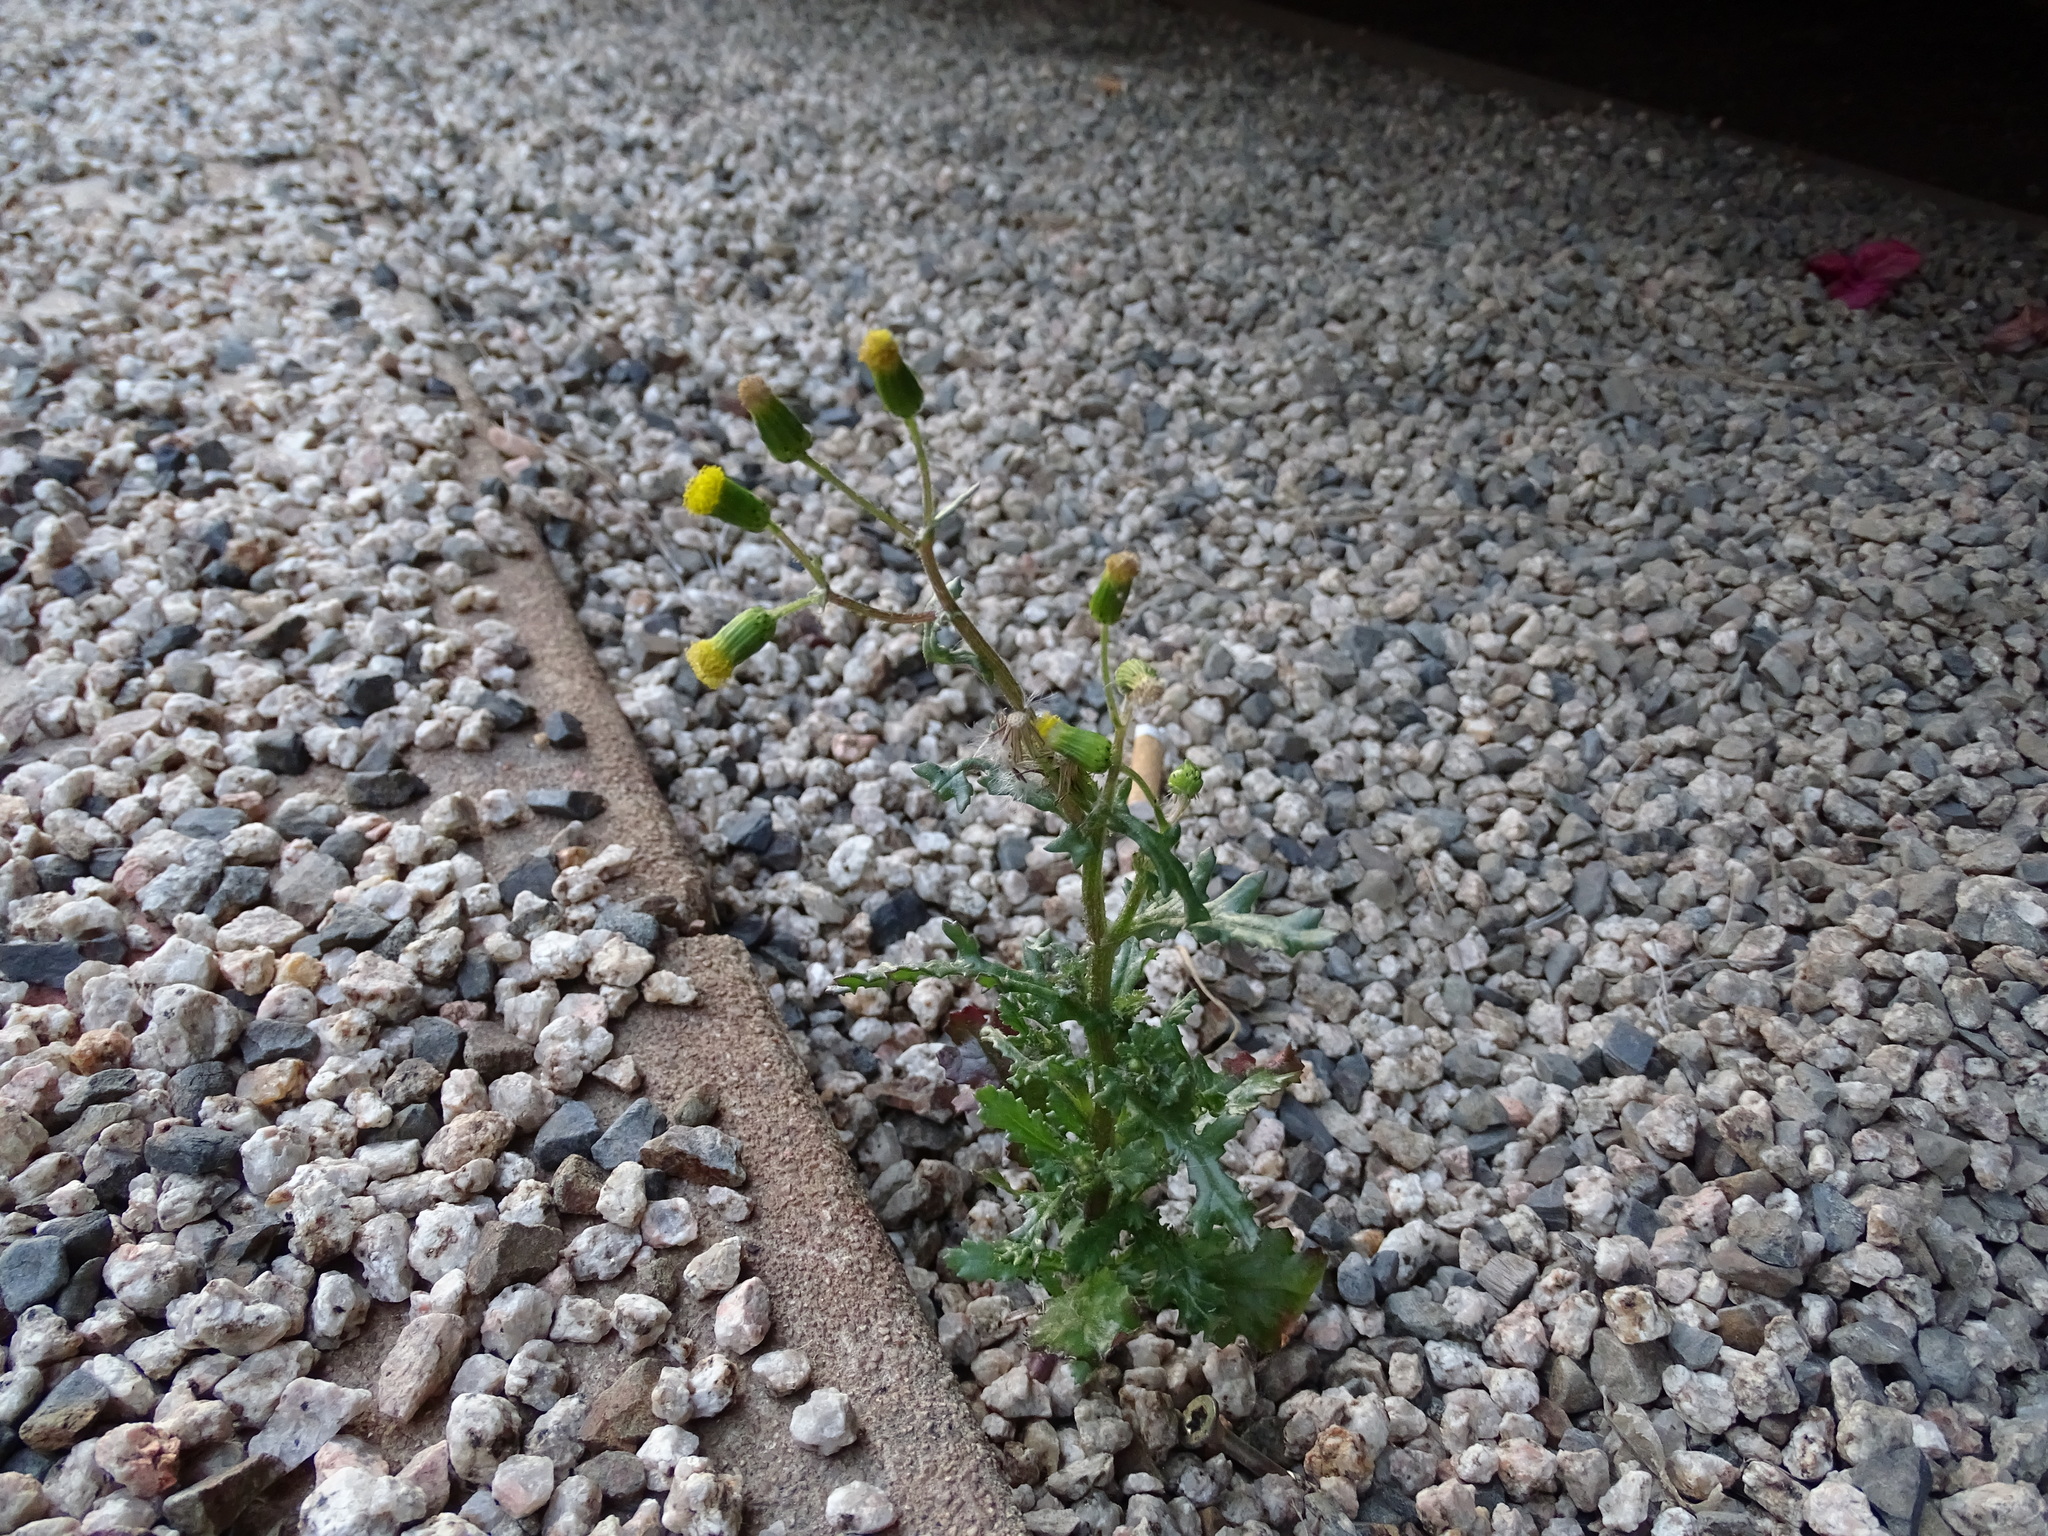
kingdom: Plantae
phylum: Tracheophyta
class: Magnoliopsida
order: Asterales
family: Asteraceae
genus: Senecio
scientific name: Senecio vulgaris
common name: Old-man-in-the-spring
